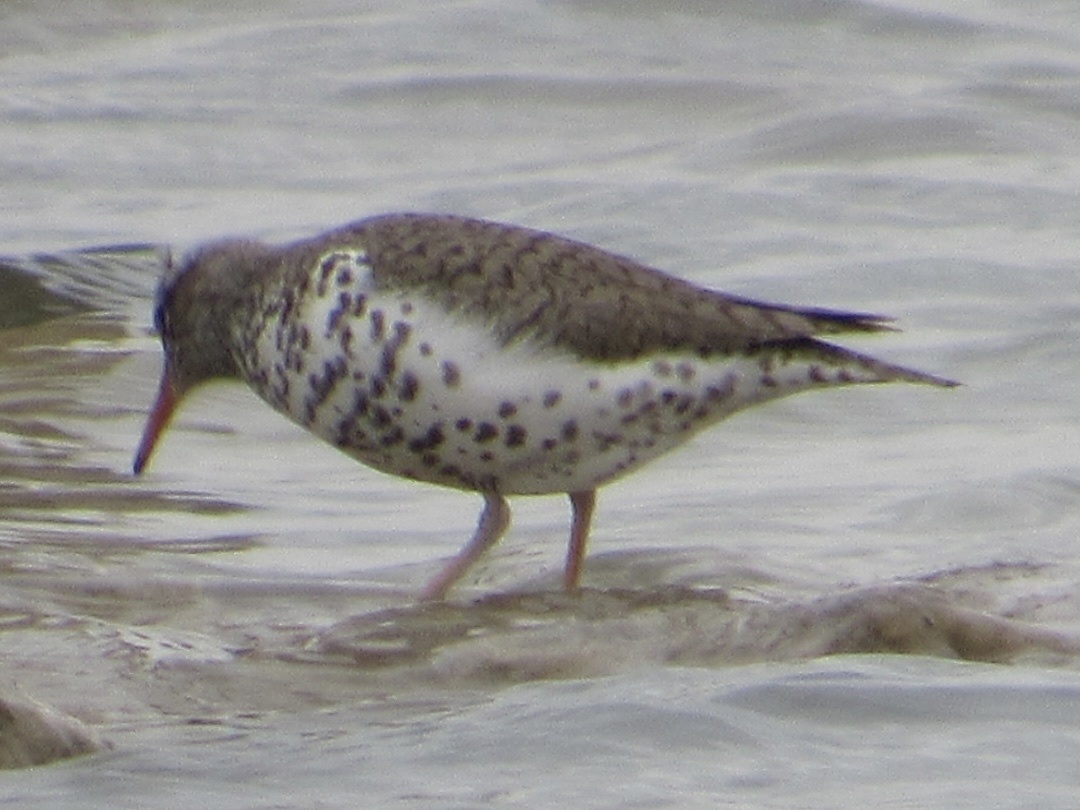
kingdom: Animalia
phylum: Chordata
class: Aves
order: Charadriiformes
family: Scolopacidae
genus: Actitis
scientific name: Actitis macularius
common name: Spotted sandpiper
